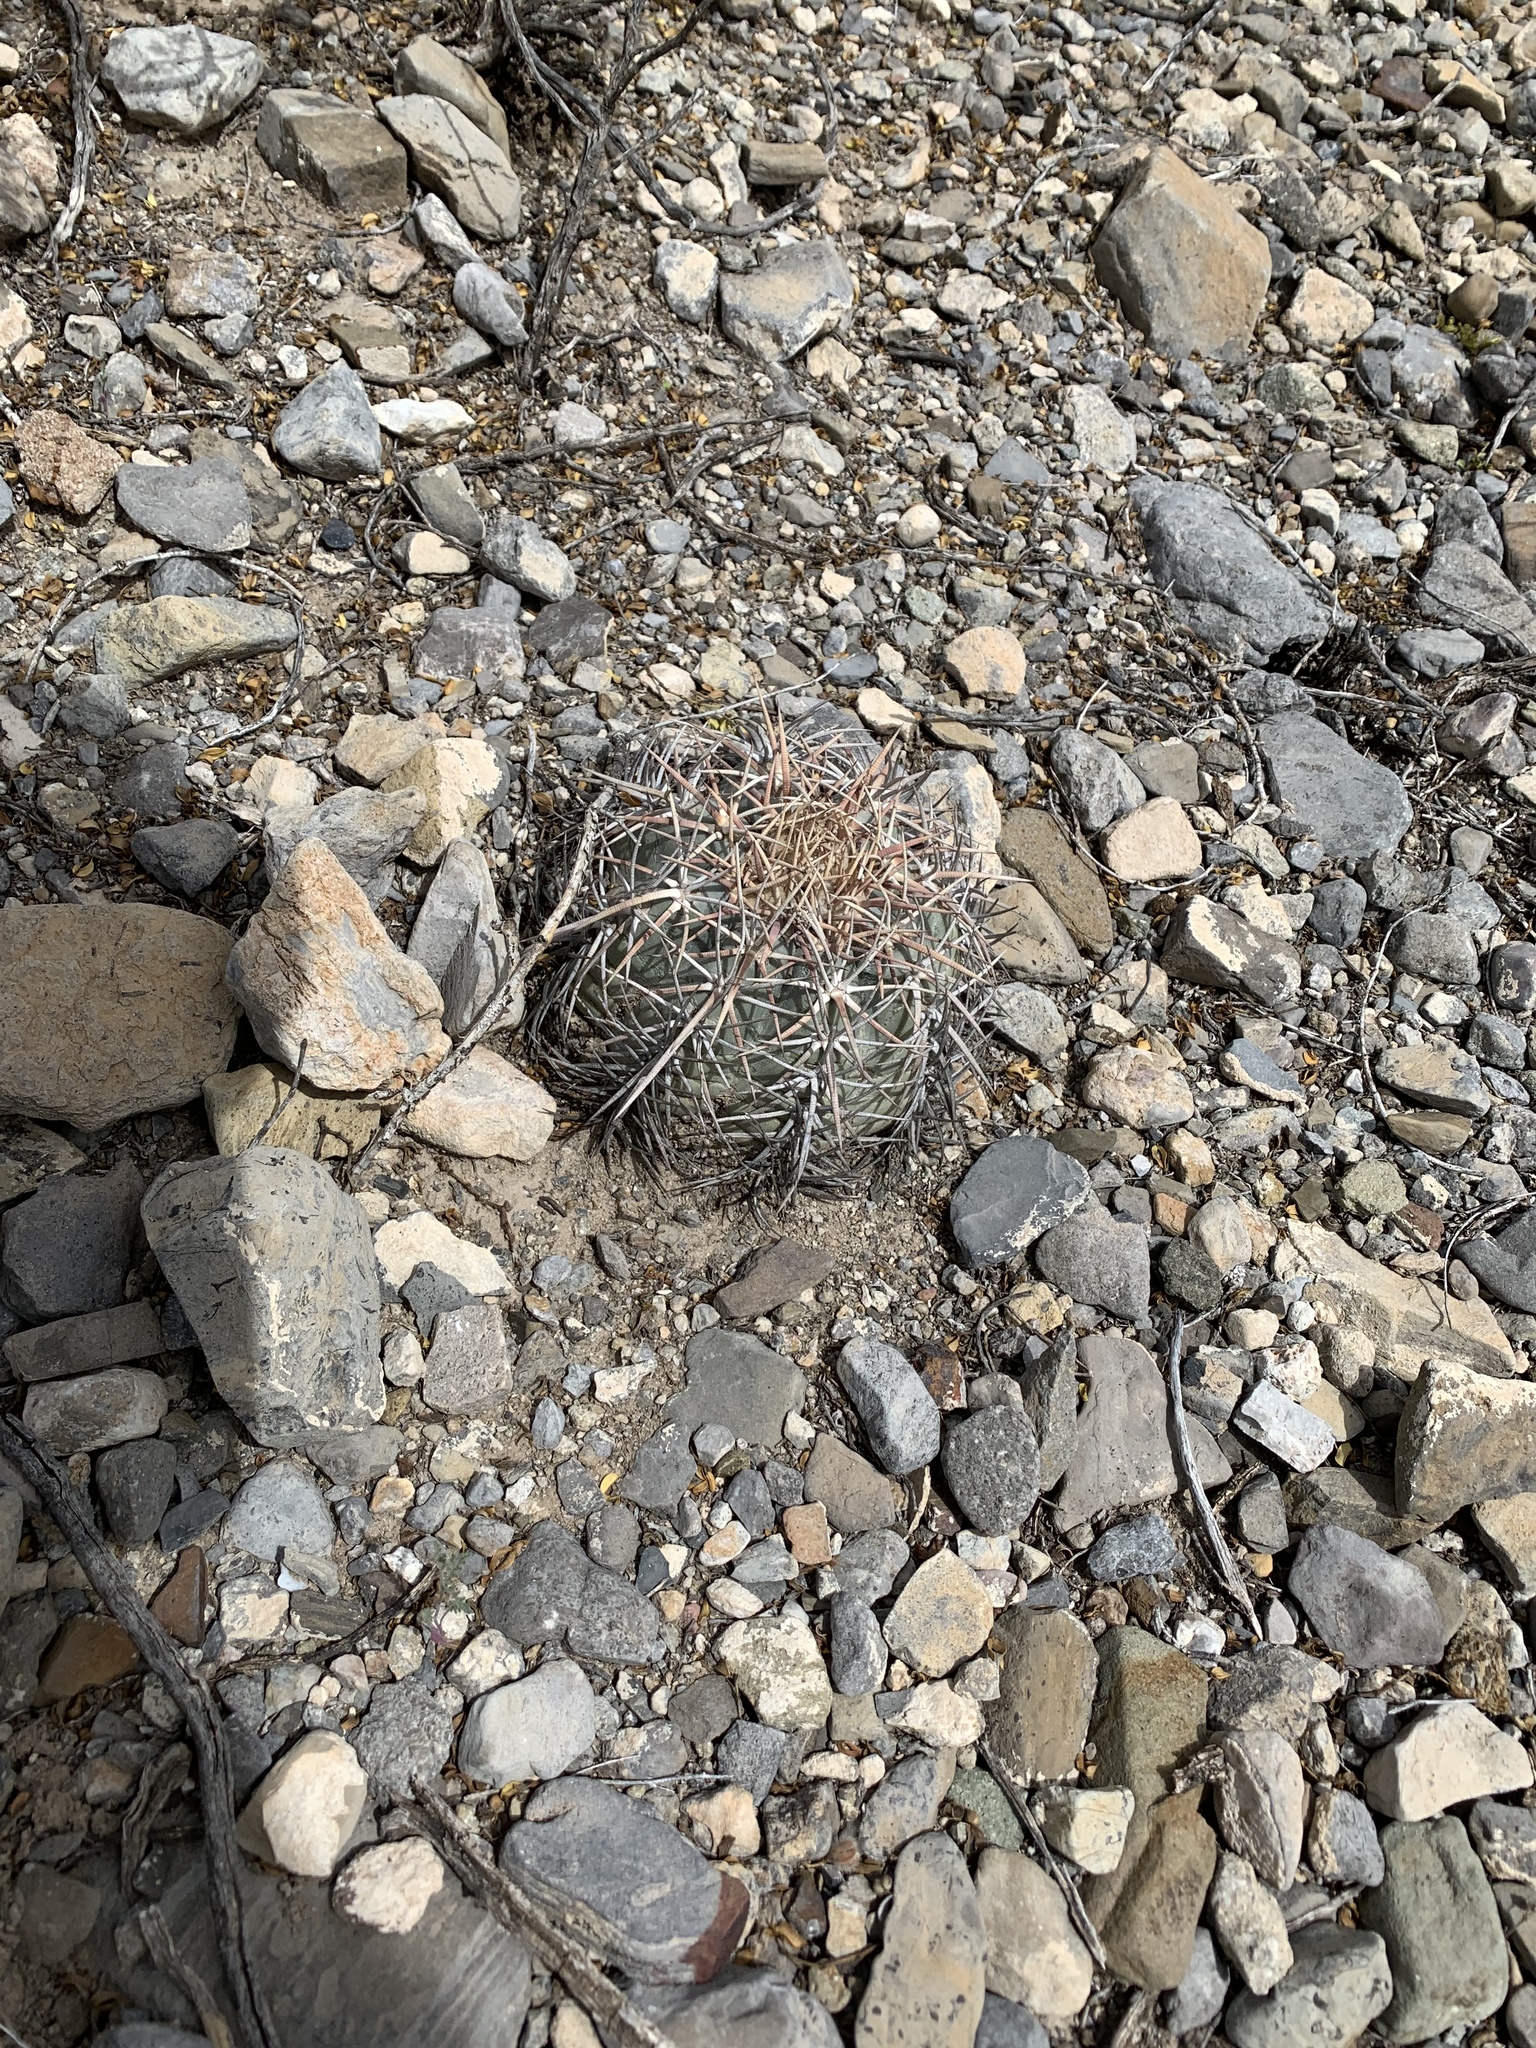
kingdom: Plantae
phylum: Tracheophyta
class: Magnoliopsida
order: Caryophyllales
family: Cactaceae
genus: Echinocactus
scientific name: Echinocactus horizonthalonius
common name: Devilshead
